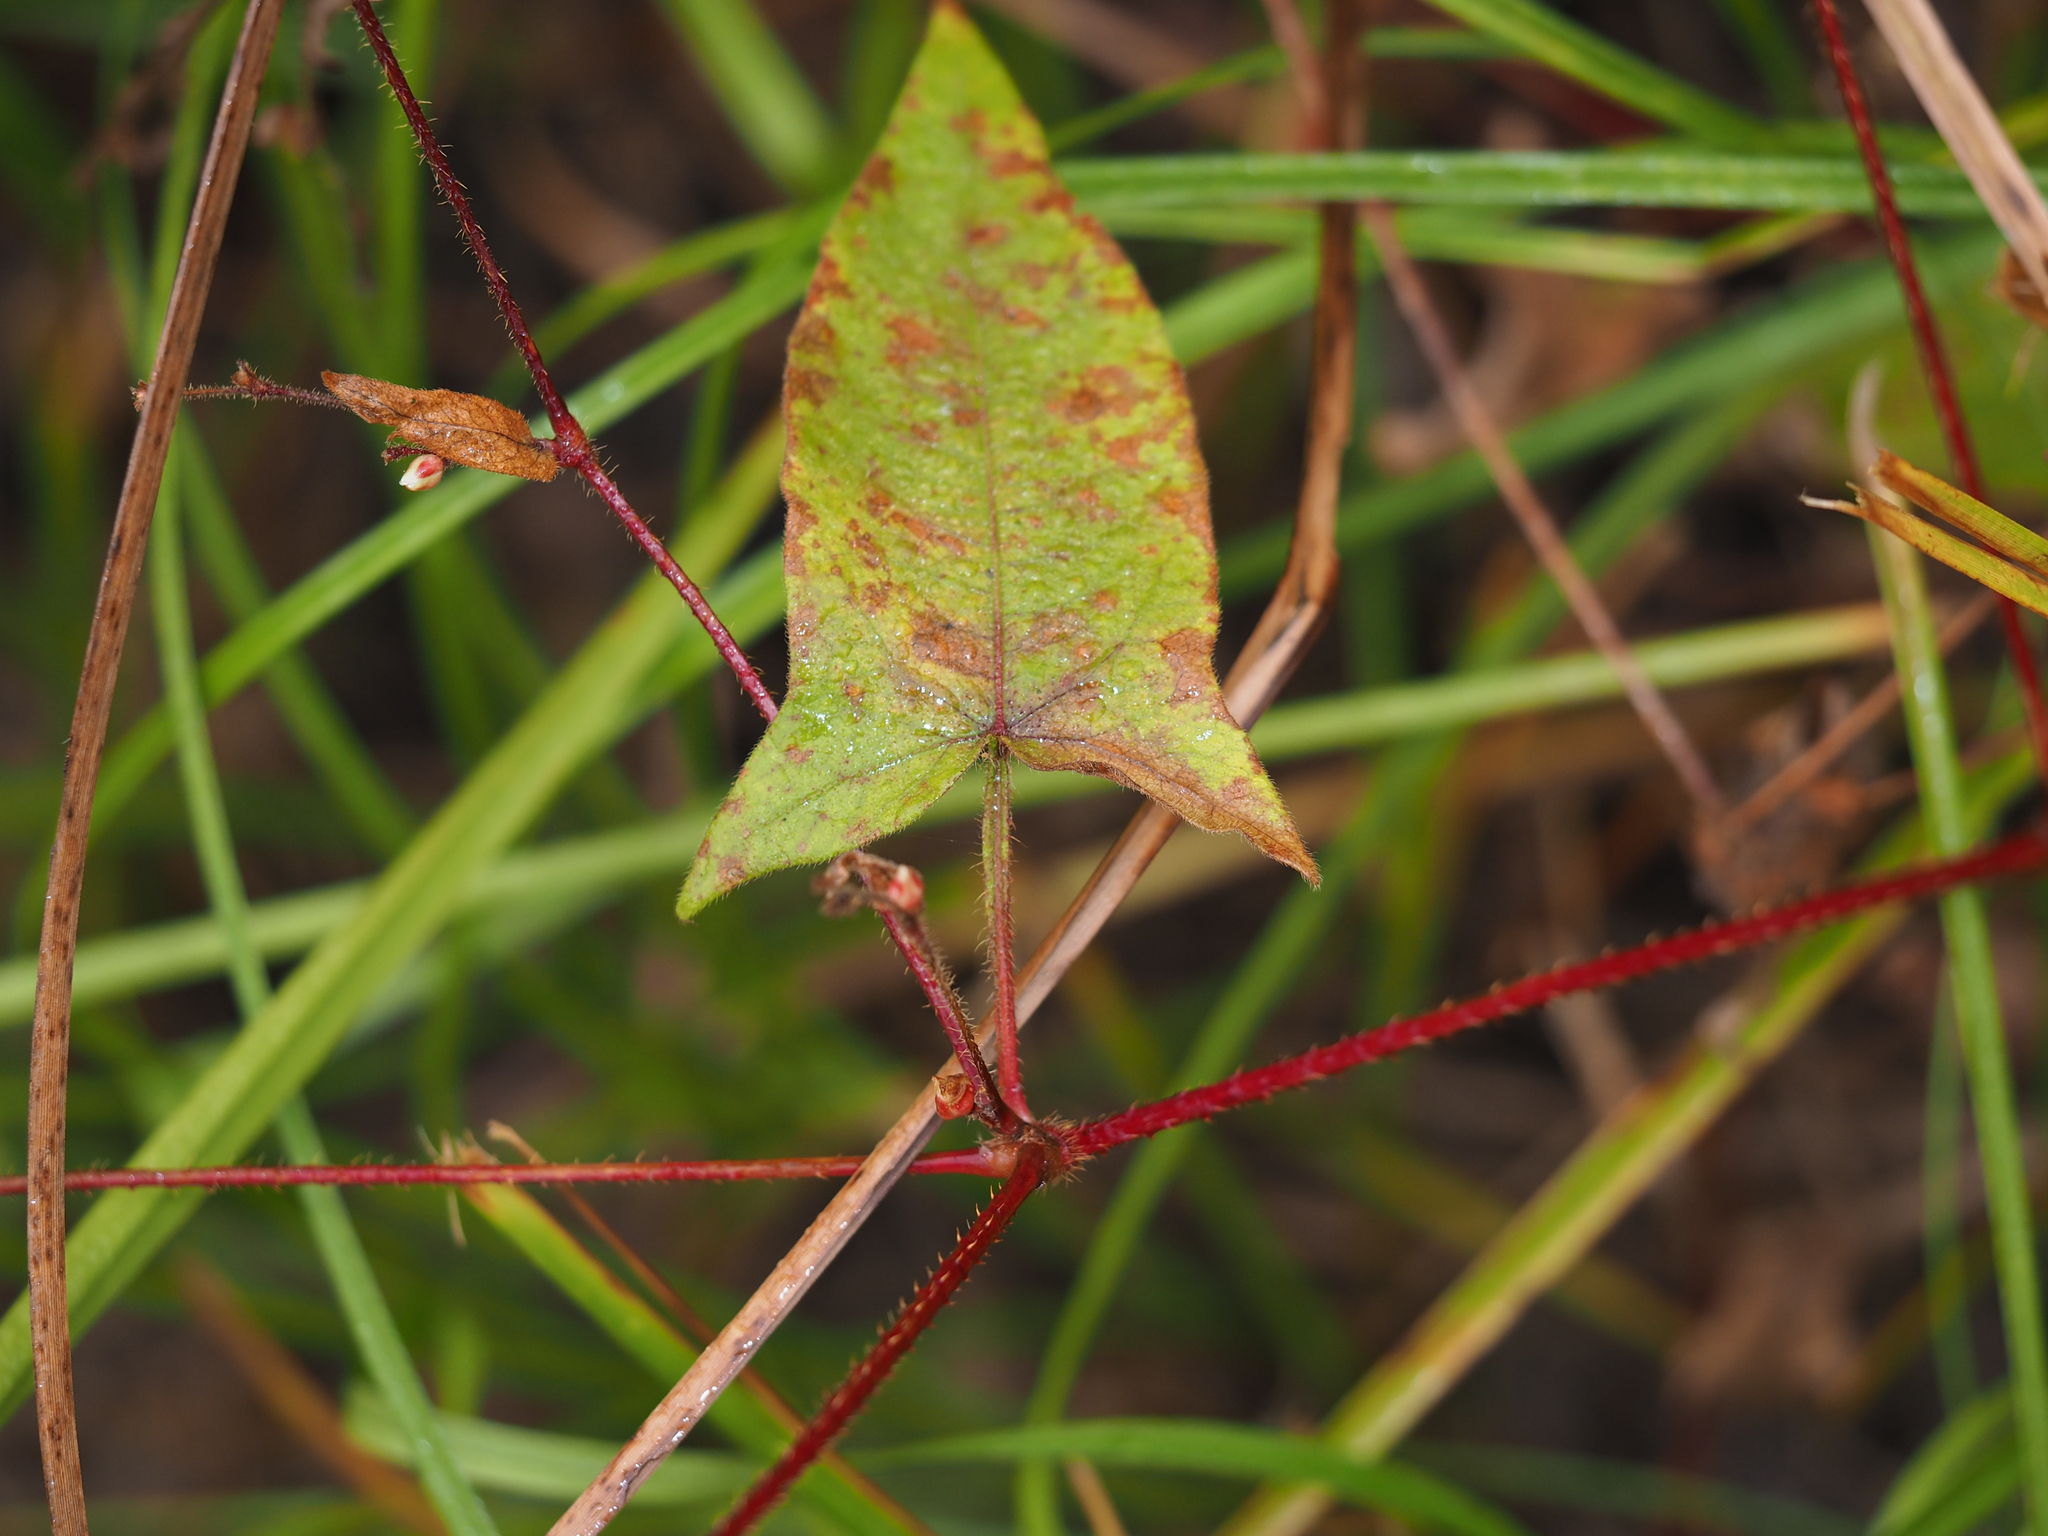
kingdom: Plantae
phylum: Tracheophyta
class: Magnoliopsida
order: Caryophyllales
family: Polygonaceae
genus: Persicaria
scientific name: Persicaria arifolia
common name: Halberd-leaved tear-thumb
